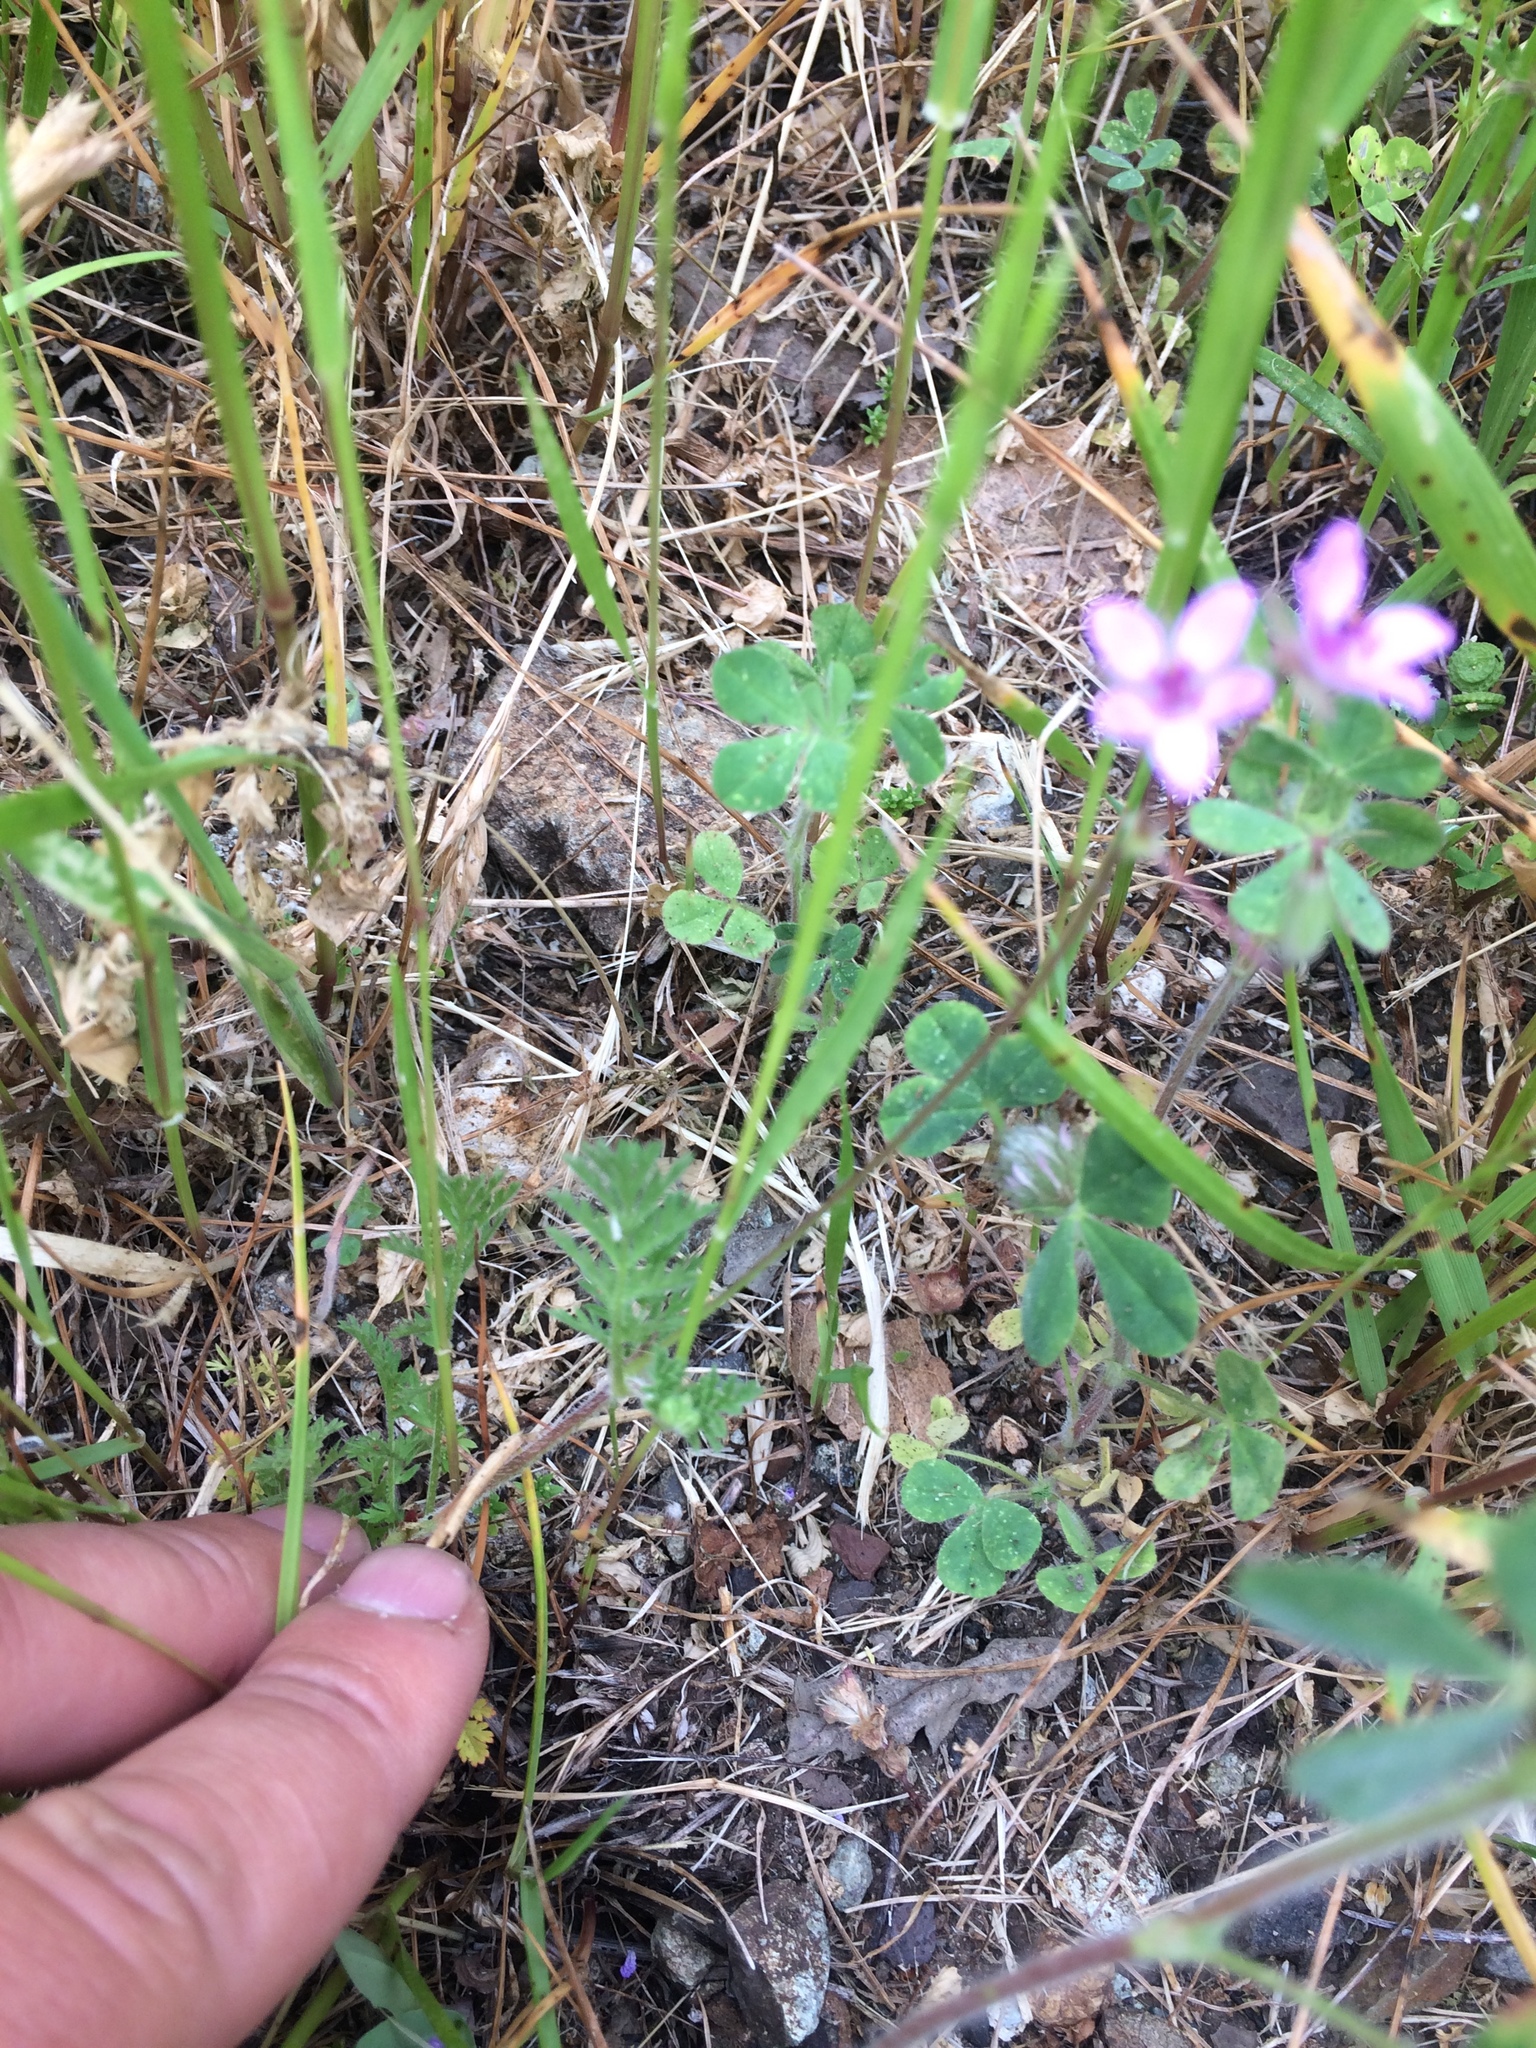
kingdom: Plantae
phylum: Tracheophyta
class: Magnoliopsida
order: Geraniales
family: Geraniaceae
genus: Erodium
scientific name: Erodium cicutarium
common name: Common stork's-bill
